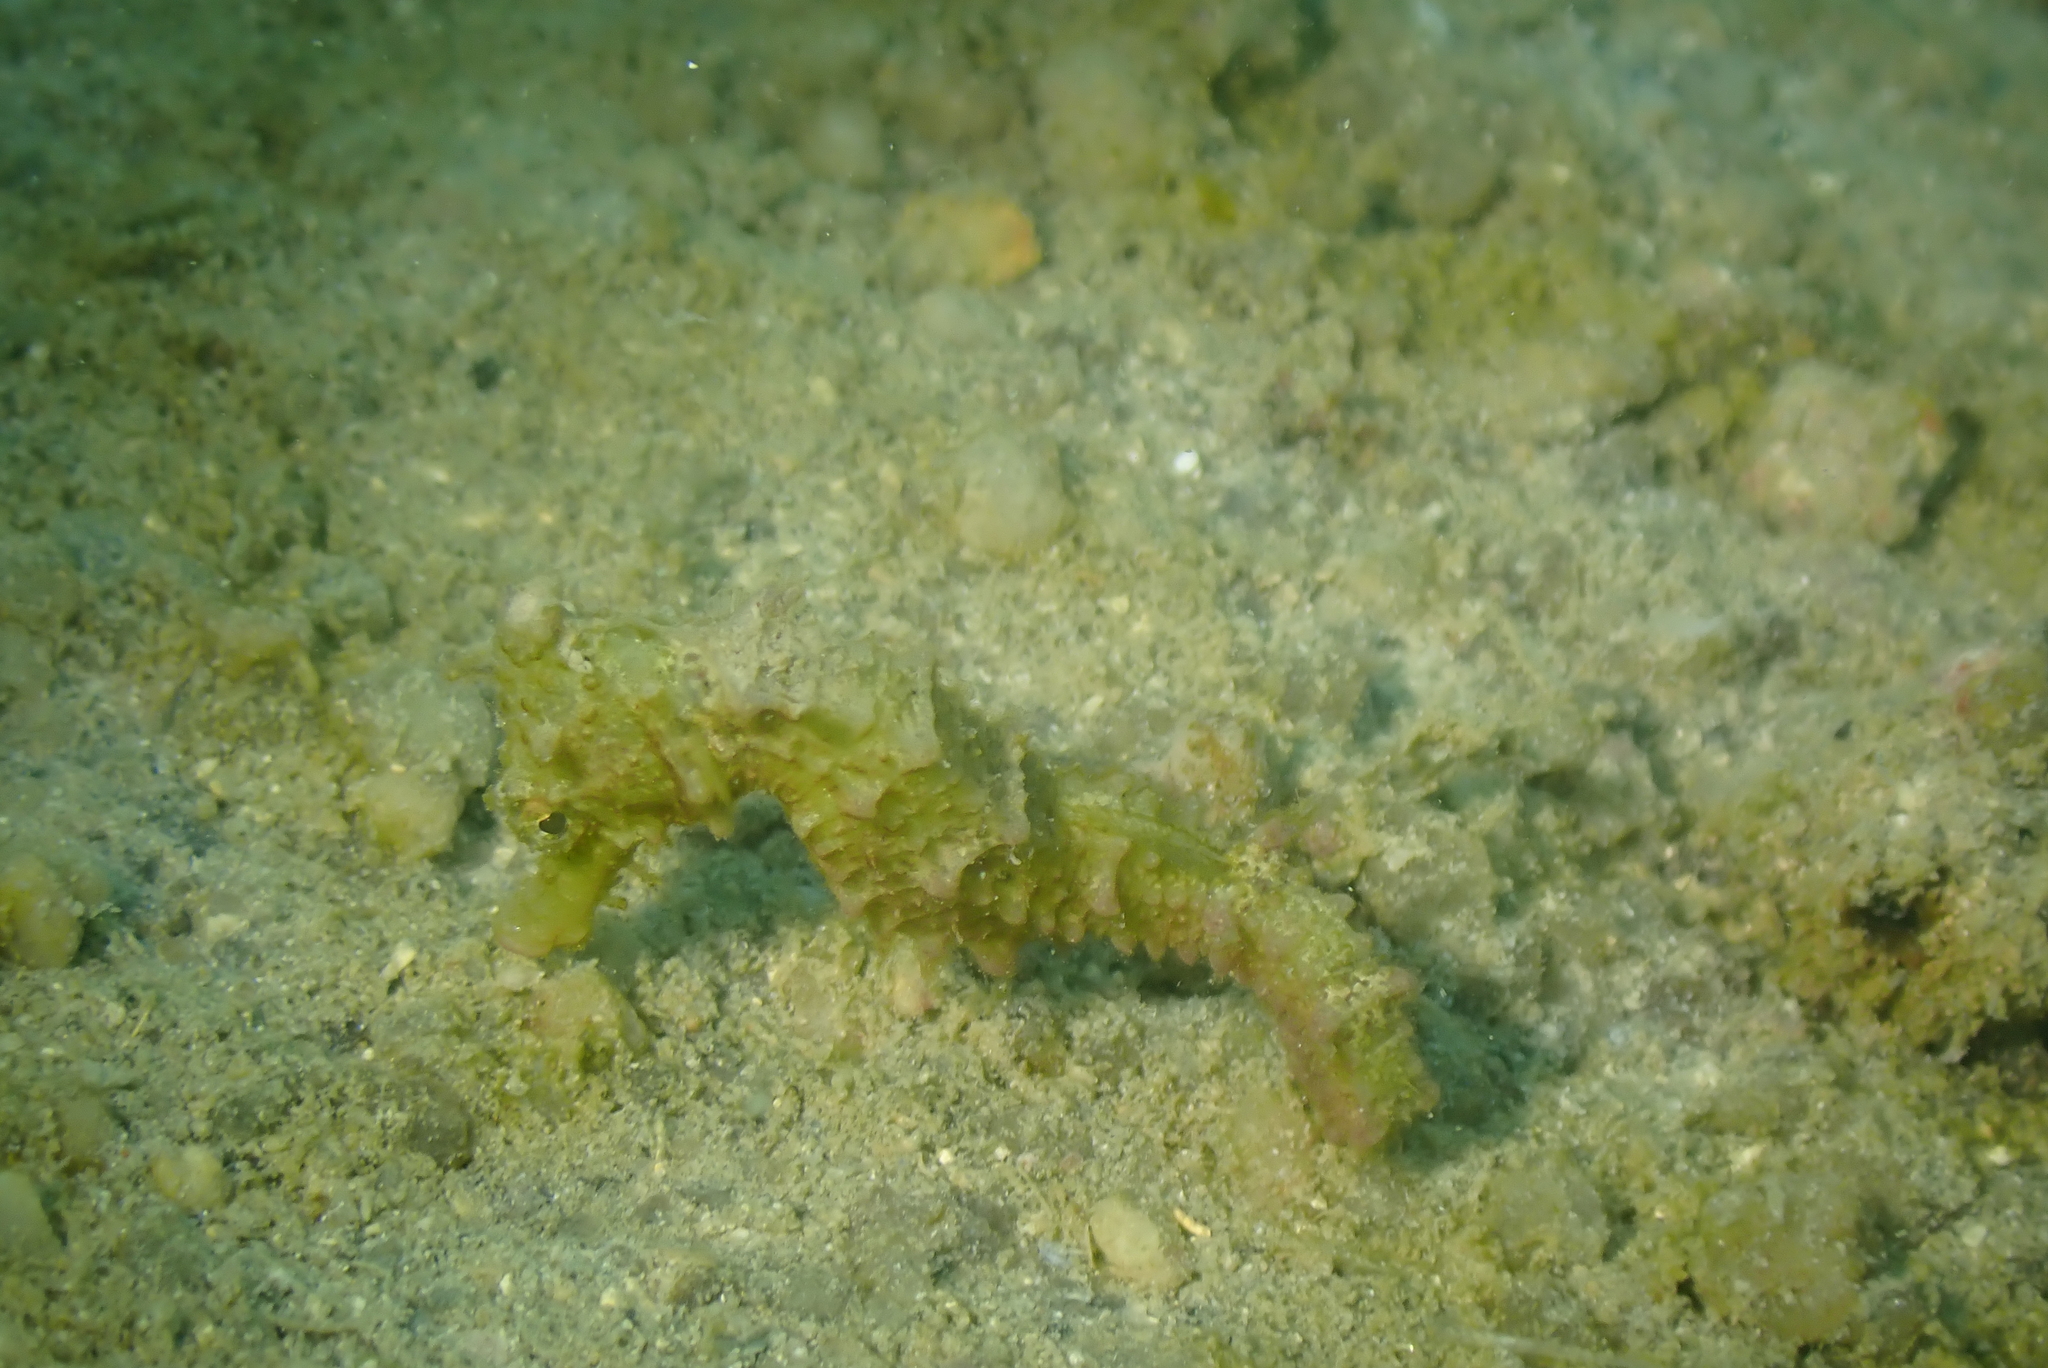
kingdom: Animalia
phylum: Chordata
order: Syngnathiformes
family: Syngnathidae
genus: Hippocampus
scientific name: Hippocampus kuda
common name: Spotted seahorse
